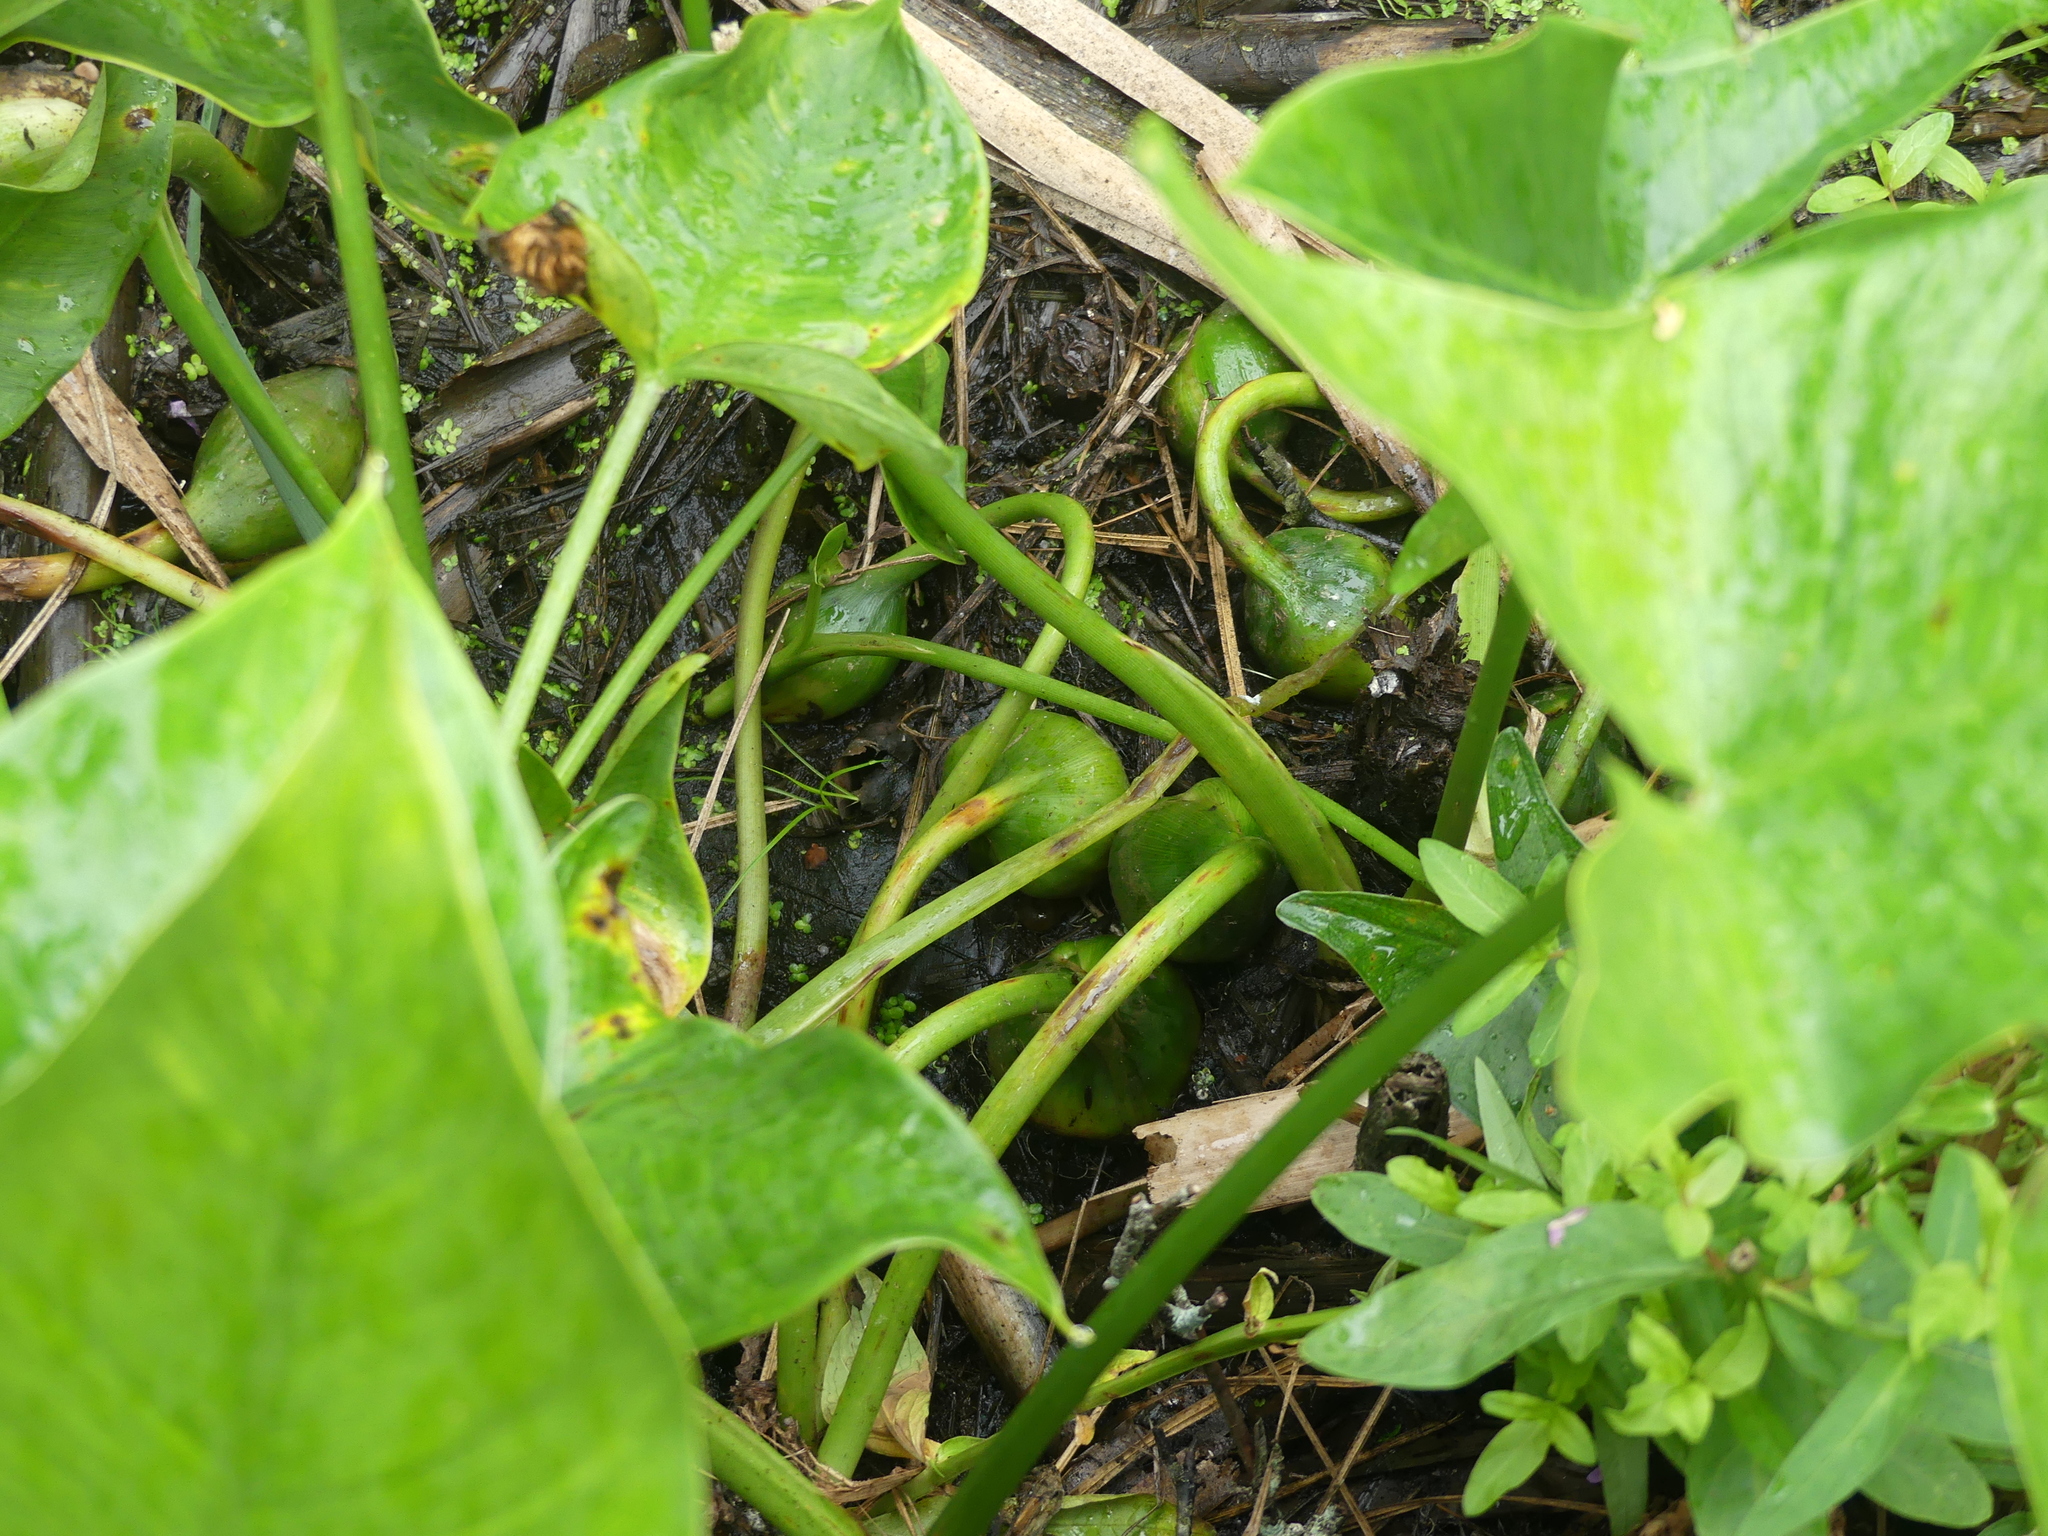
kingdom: Plantae
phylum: Tracheophyta
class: Liliopsida
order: Alismatales
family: Araceae
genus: Peltandra
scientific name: Peltandra virginica
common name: Arrow arum
